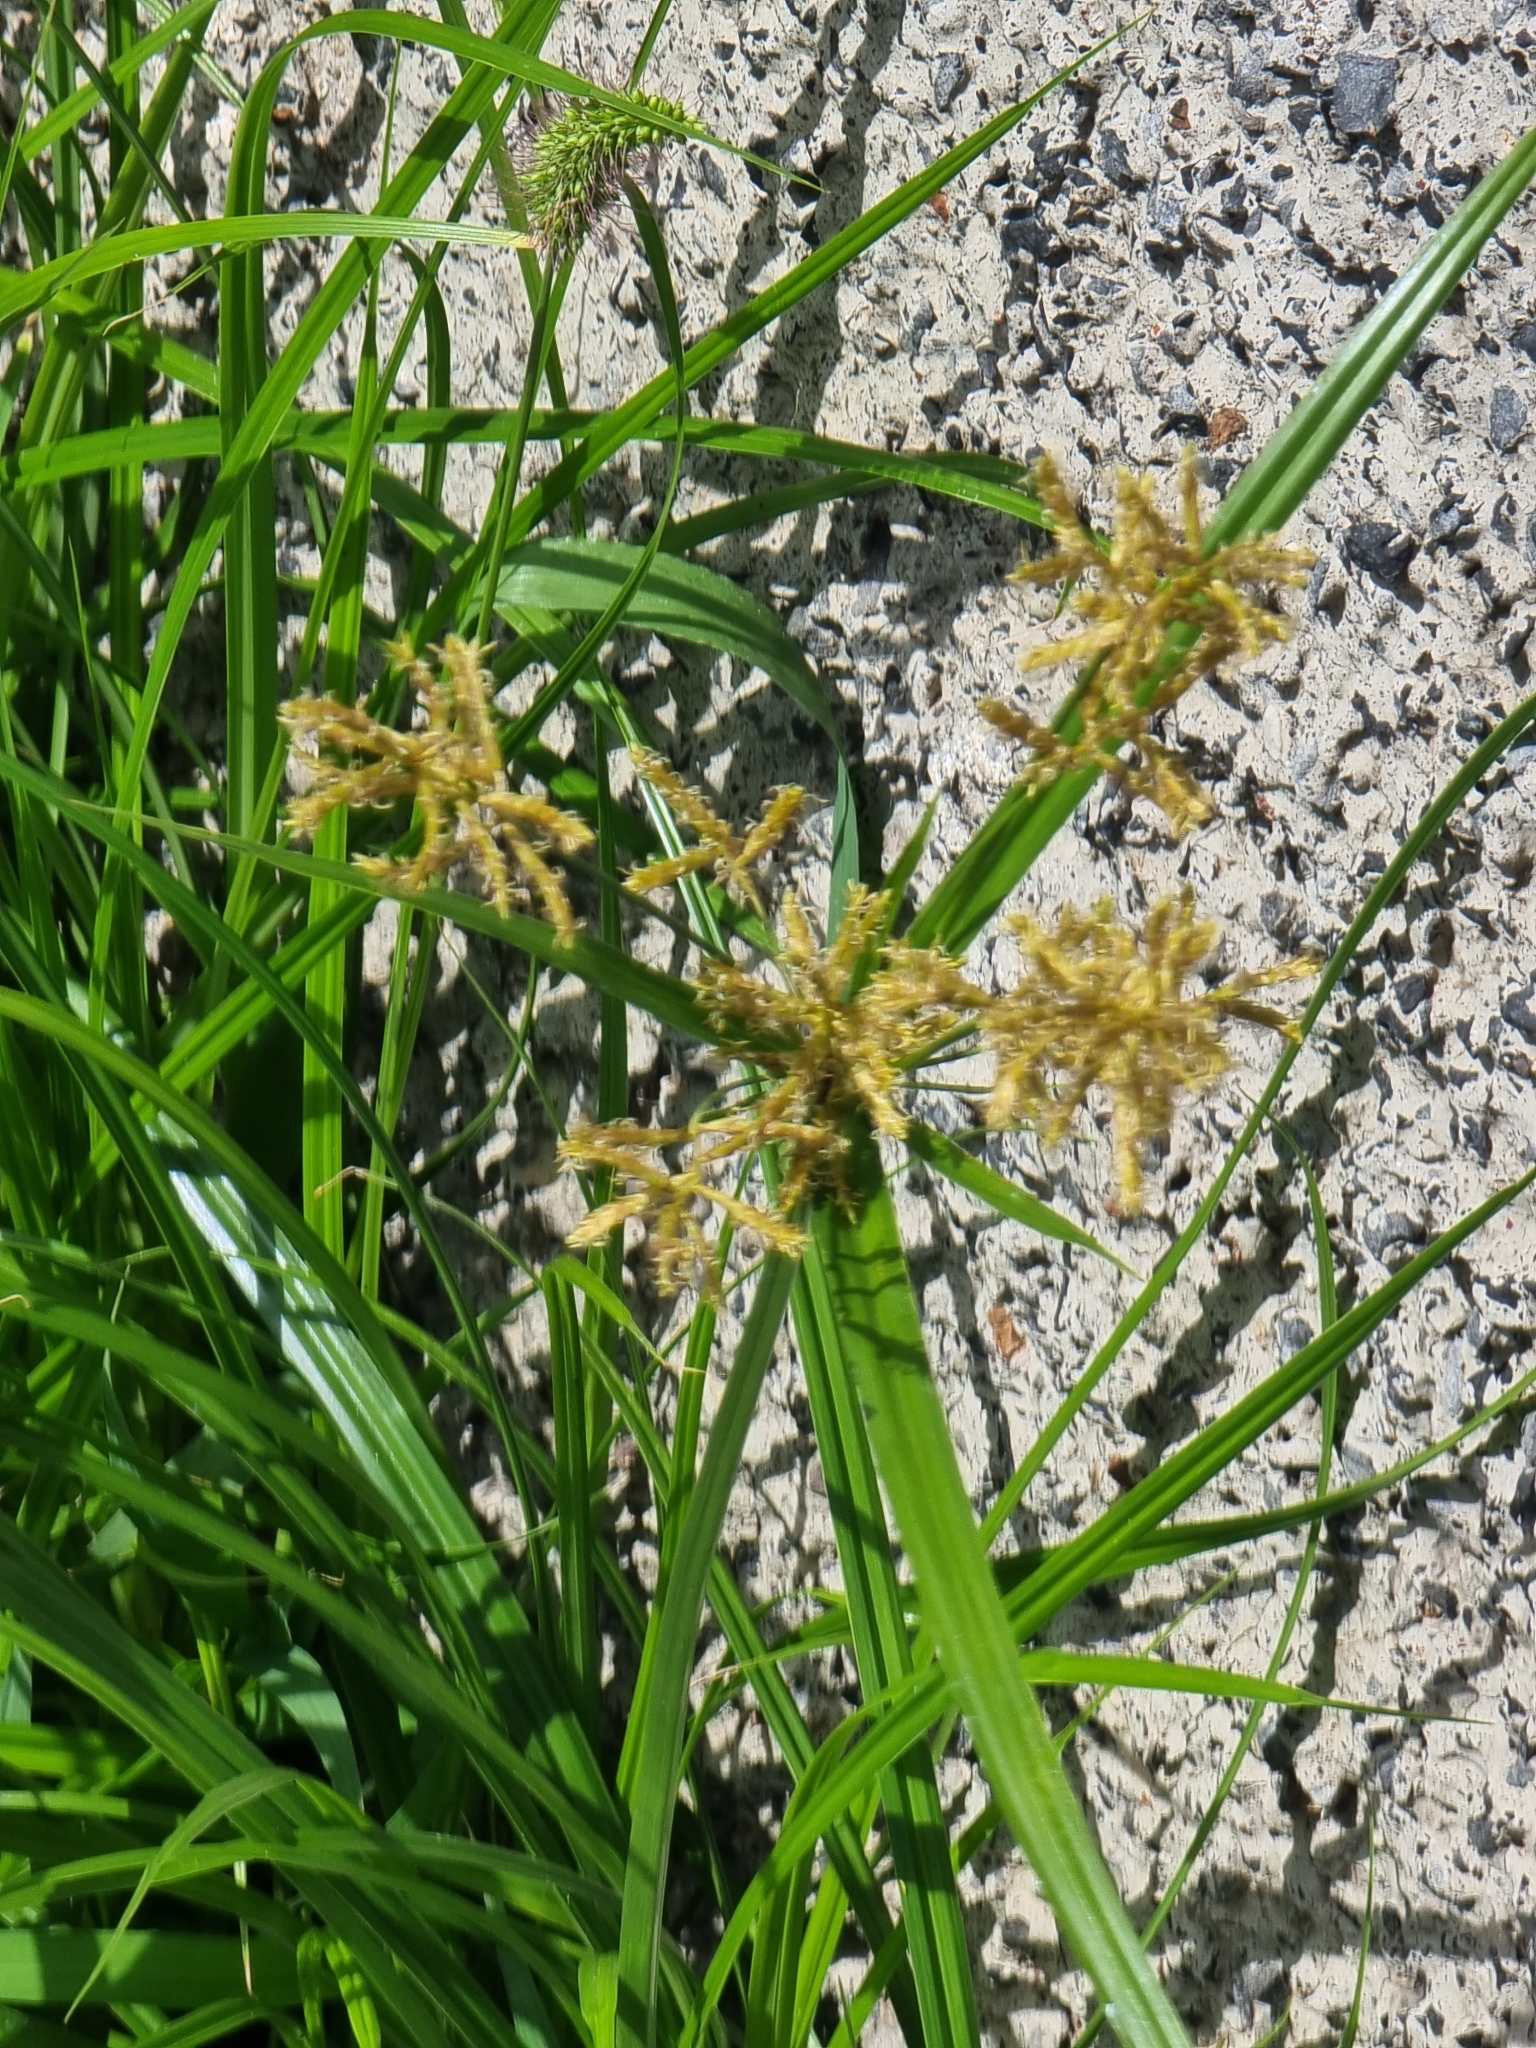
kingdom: Plantae
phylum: Tracheophyta
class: Liliopsida
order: Poales
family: Cyperaceae
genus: Cyperus
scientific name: Cyperus esculentus
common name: Yellow nutsedge
